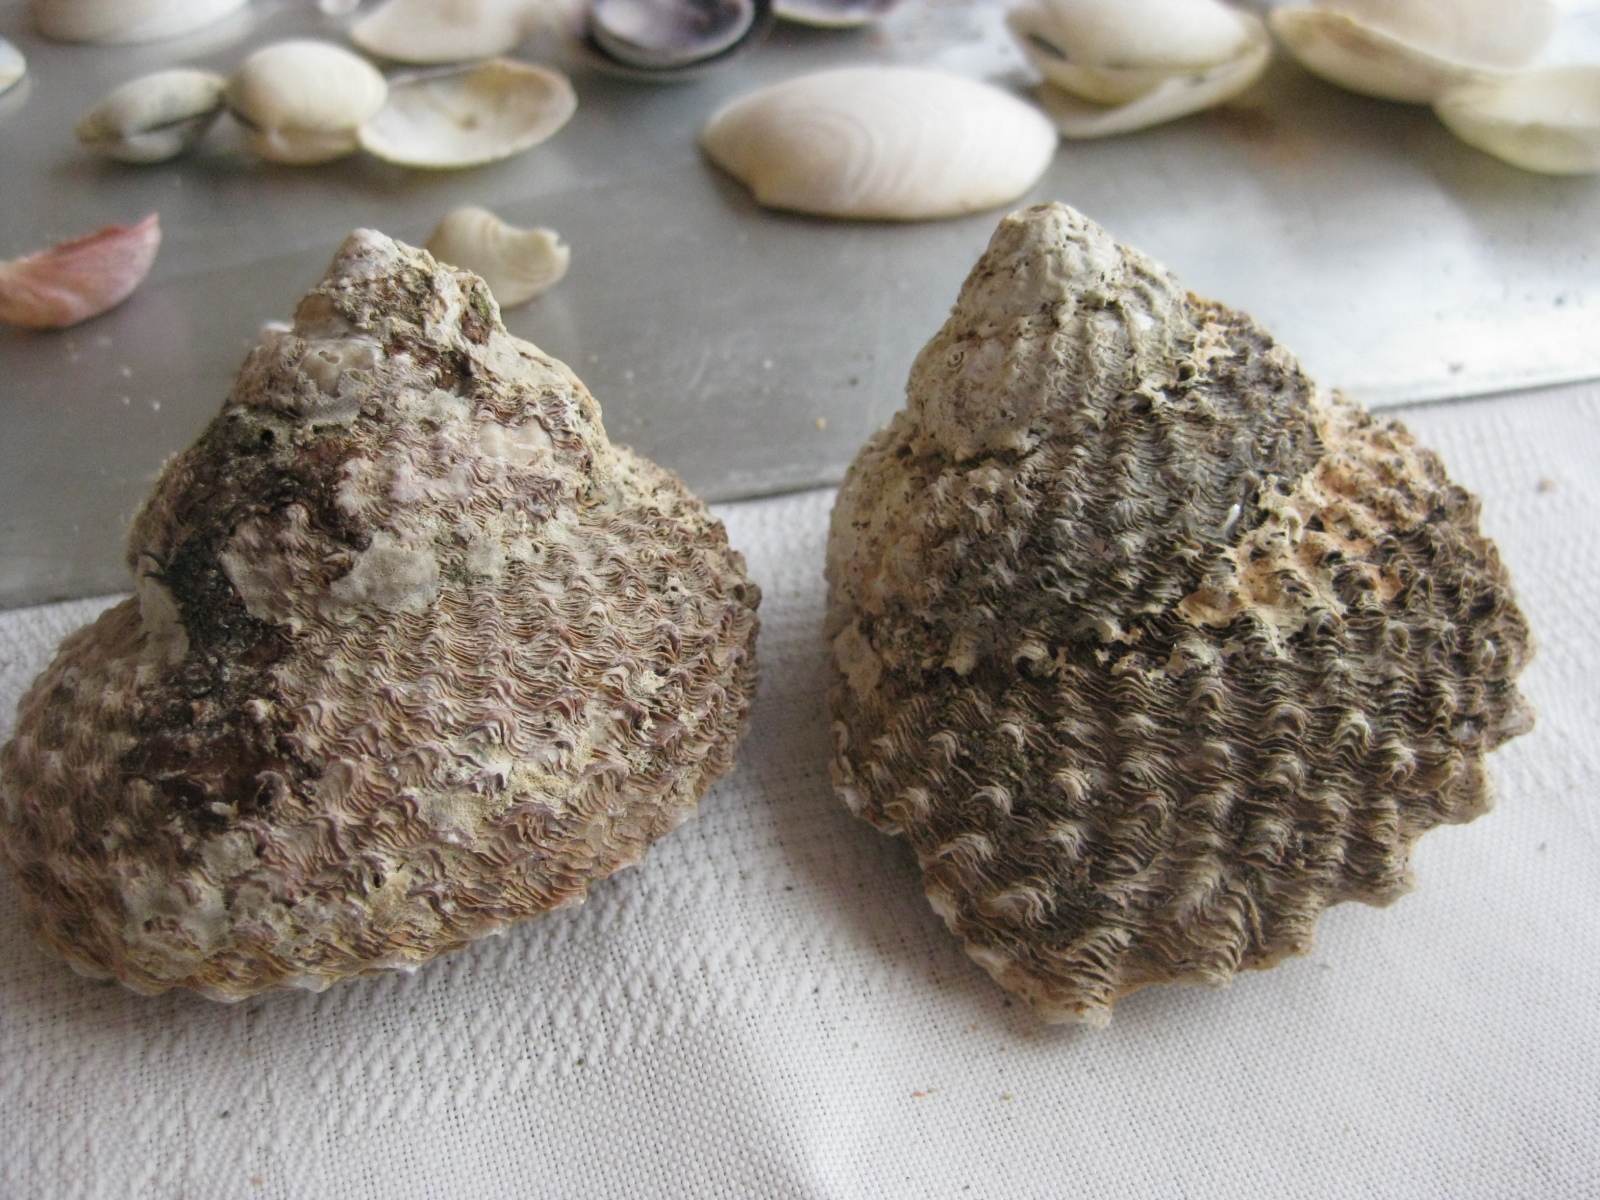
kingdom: Animalia
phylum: Mollusca
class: Gastropoda
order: Trochida
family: Turbinidae
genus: Cookia
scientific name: Cookia sulcata
